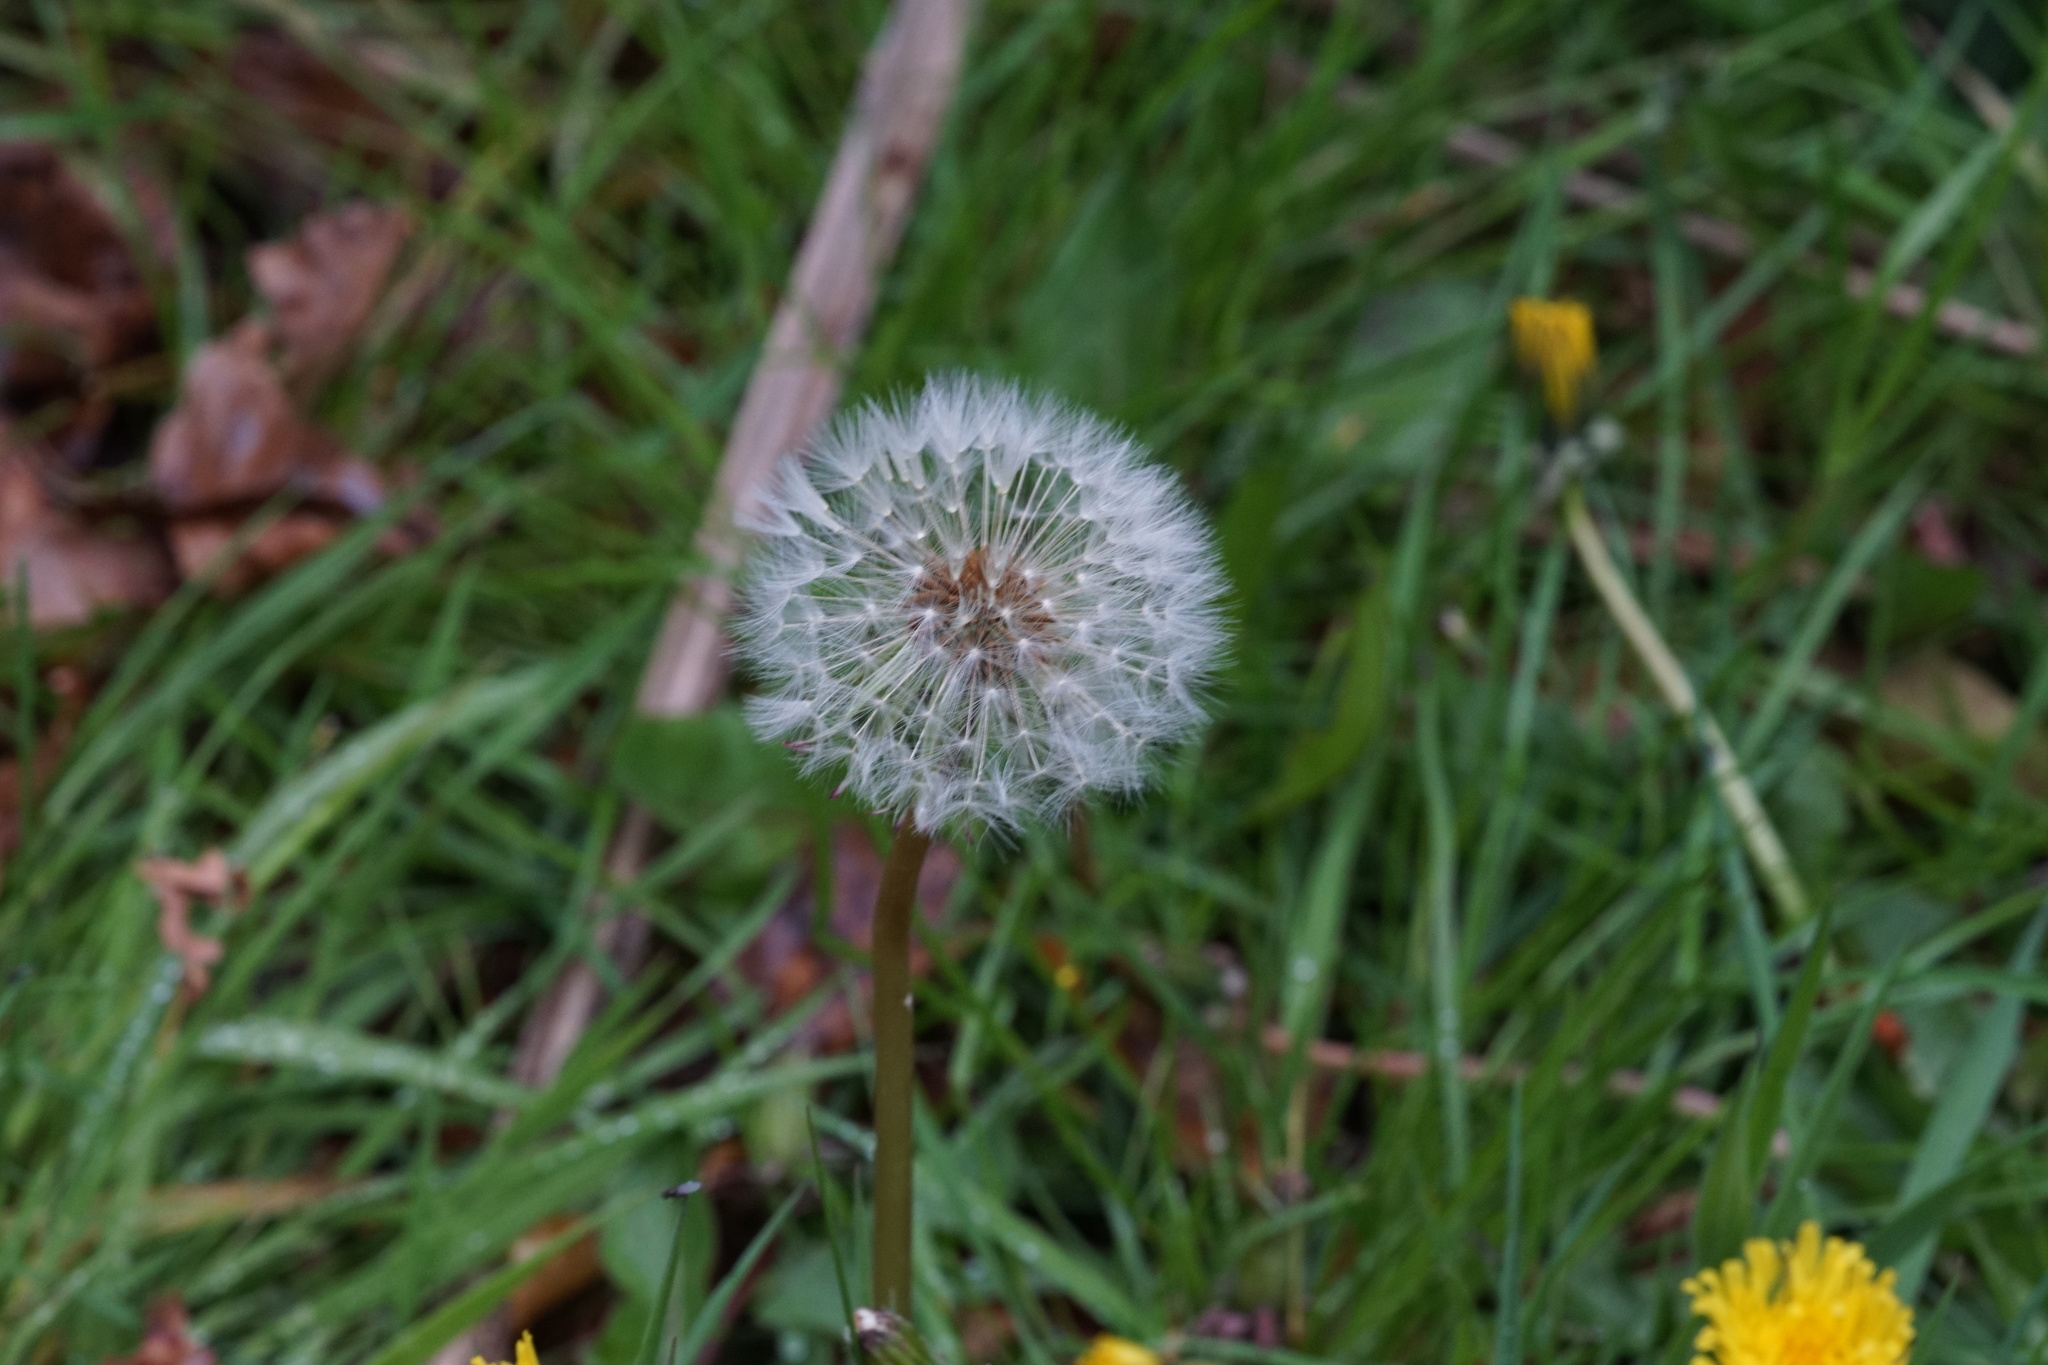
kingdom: Plantae
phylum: Tracheophyta
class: Magnoliopsida
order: Asterales
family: Asteraceae
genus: Taraxacum
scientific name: Taraxacum officinale
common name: Common dandelion
